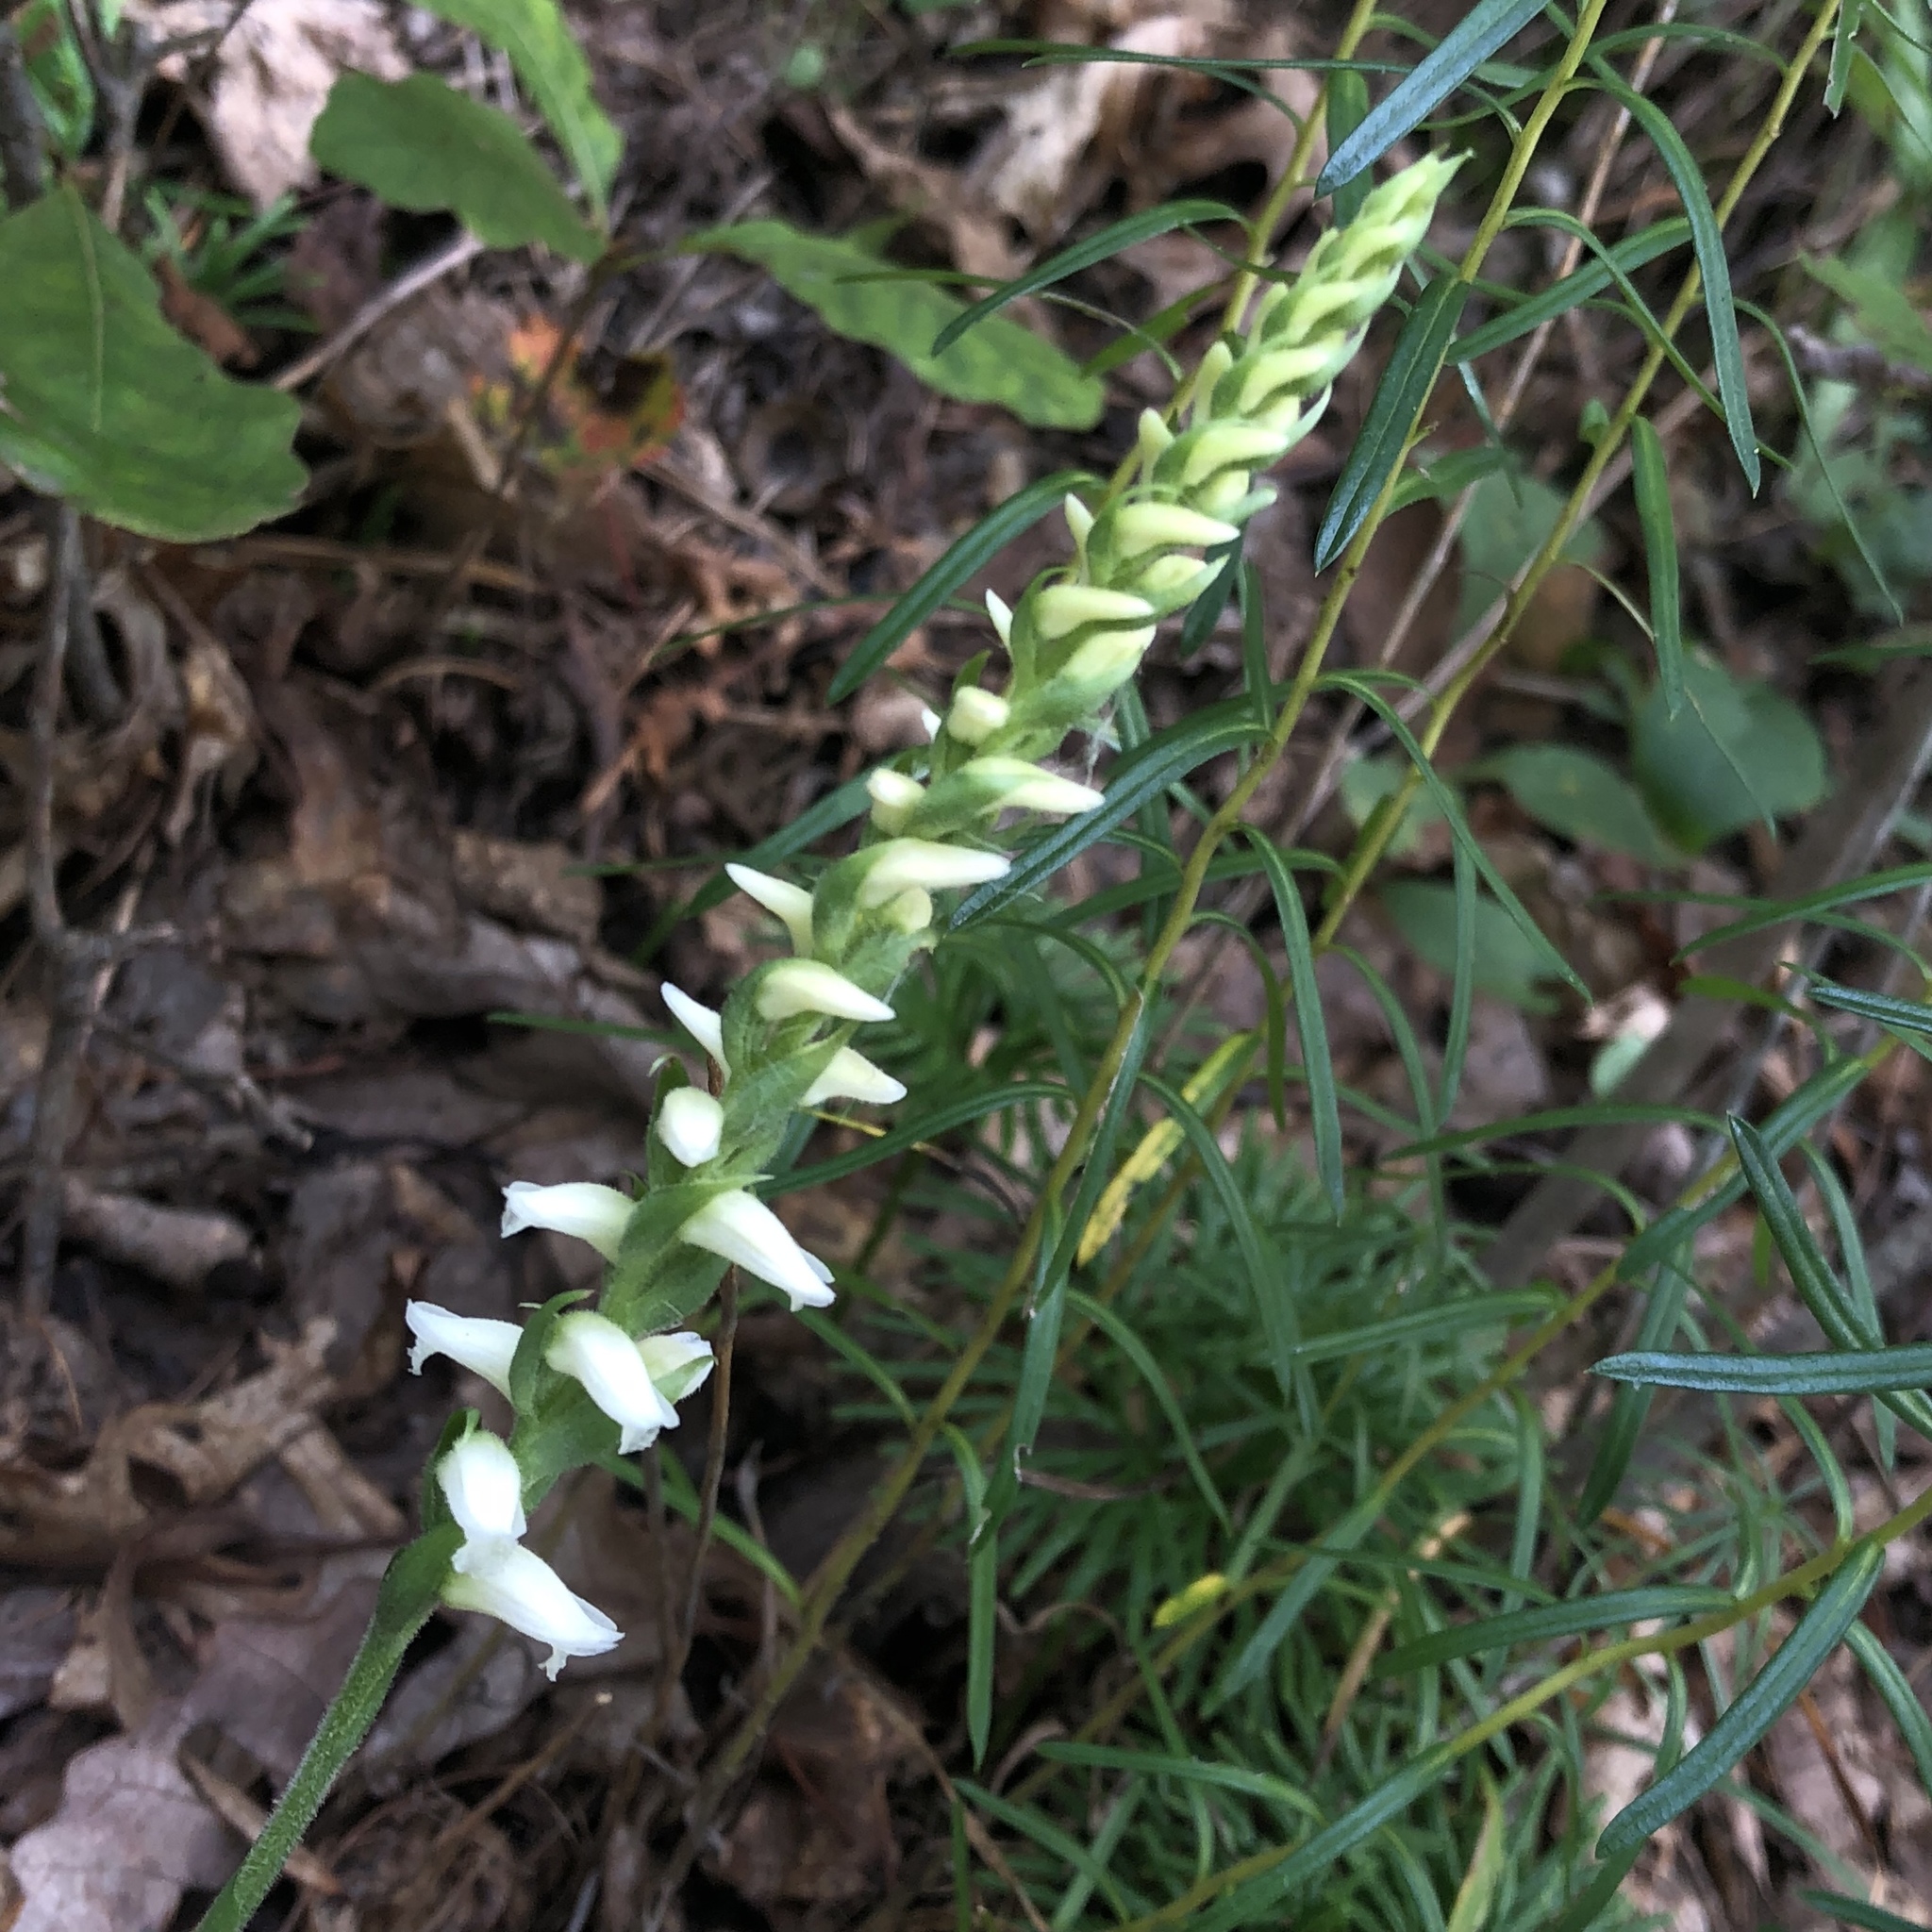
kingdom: Plantae
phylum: Tracheophyta
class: Liliopsida
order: Asparagales
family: Orchidaceae
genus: Spiranthes
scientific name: Spiranthes ochroleuca
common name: Yellow ladies'-tresses
